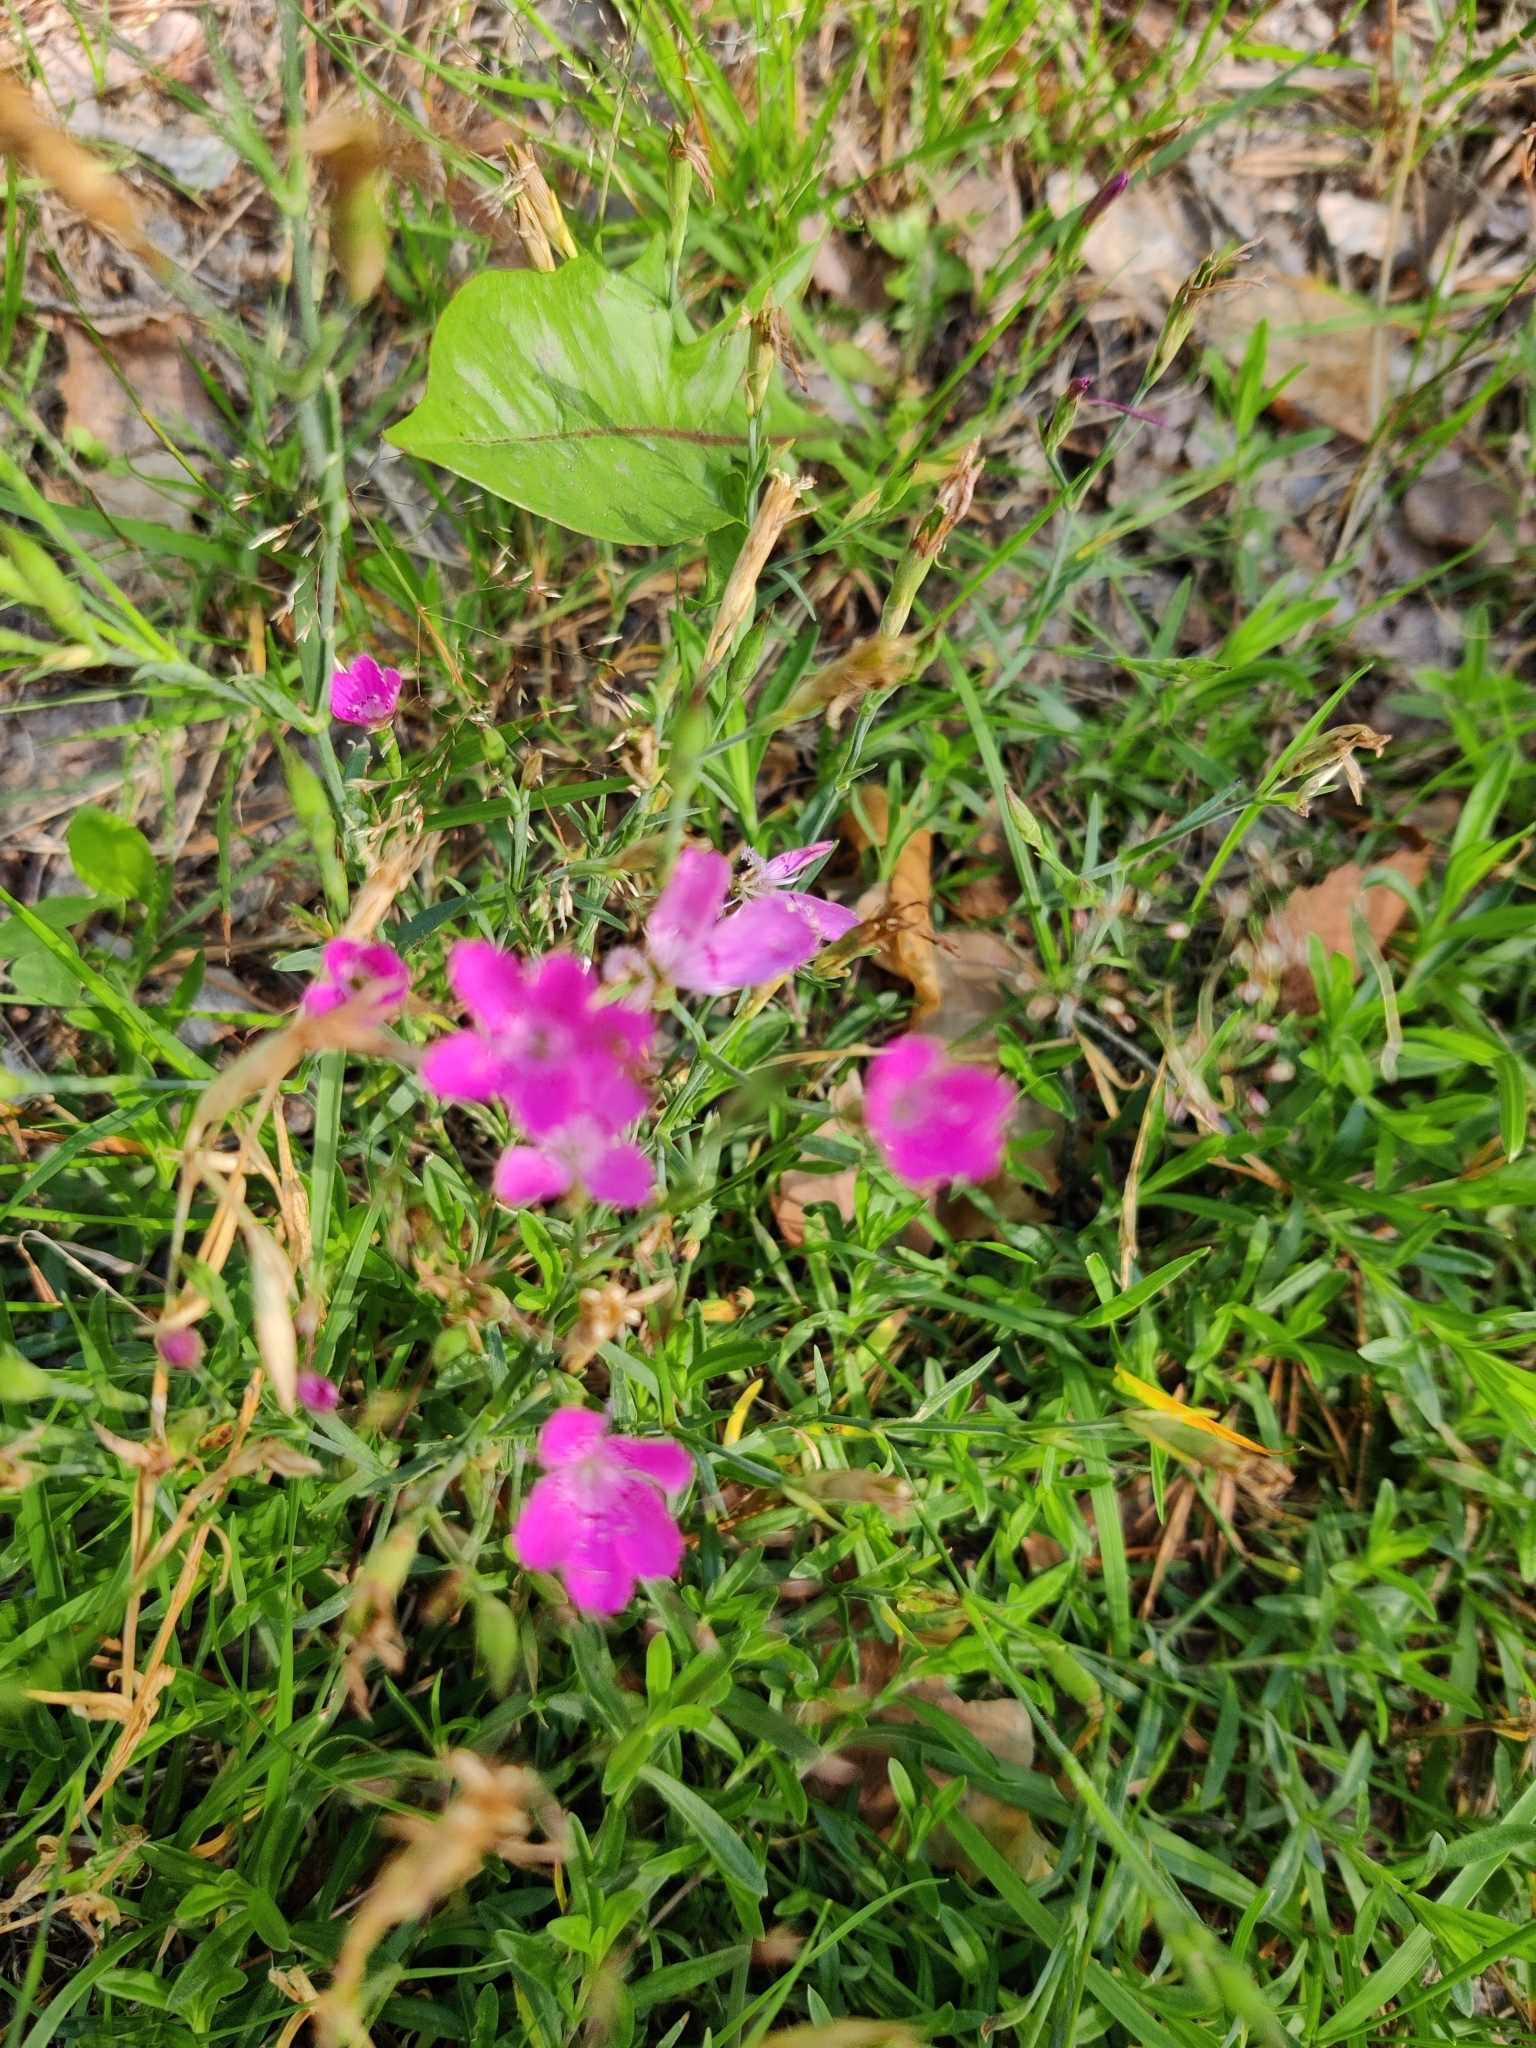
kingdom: Plantae
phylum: Tracheophyta
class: Magnoliopsida
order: Caryophyllales
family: Caryophyllaceae
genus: Dianthus
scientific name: Dianthus deltoides
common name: Maiden pink
